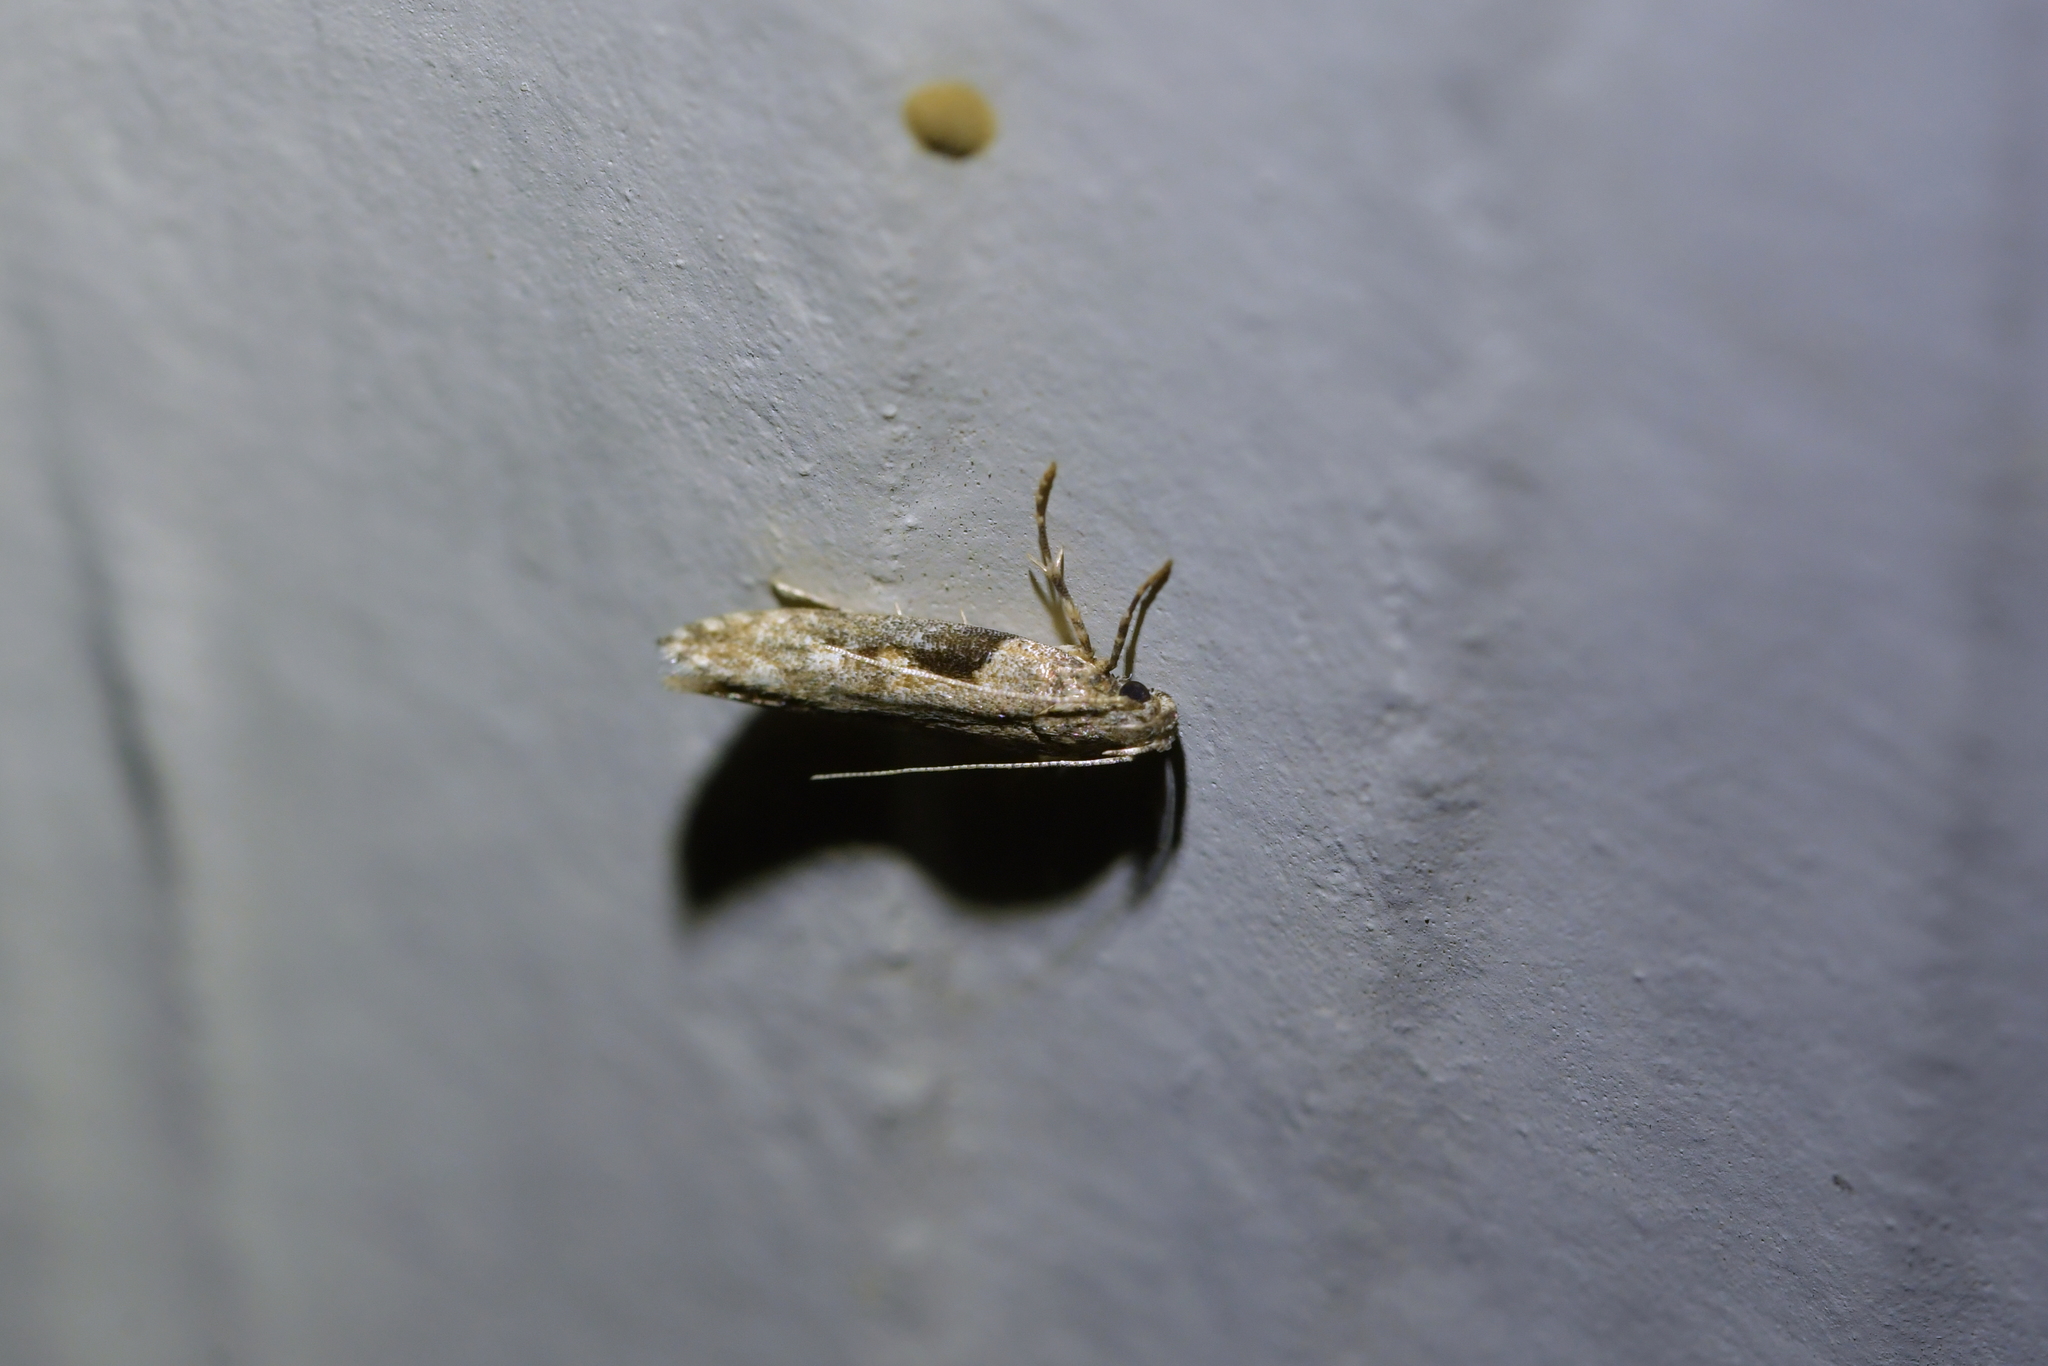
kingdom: Animalia
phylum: Arthropoda
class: Insecta
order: Lepidoptera
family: Gelechiidae
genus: Symmetrischema
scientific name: Symmetrischema tangolias
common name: Moth
